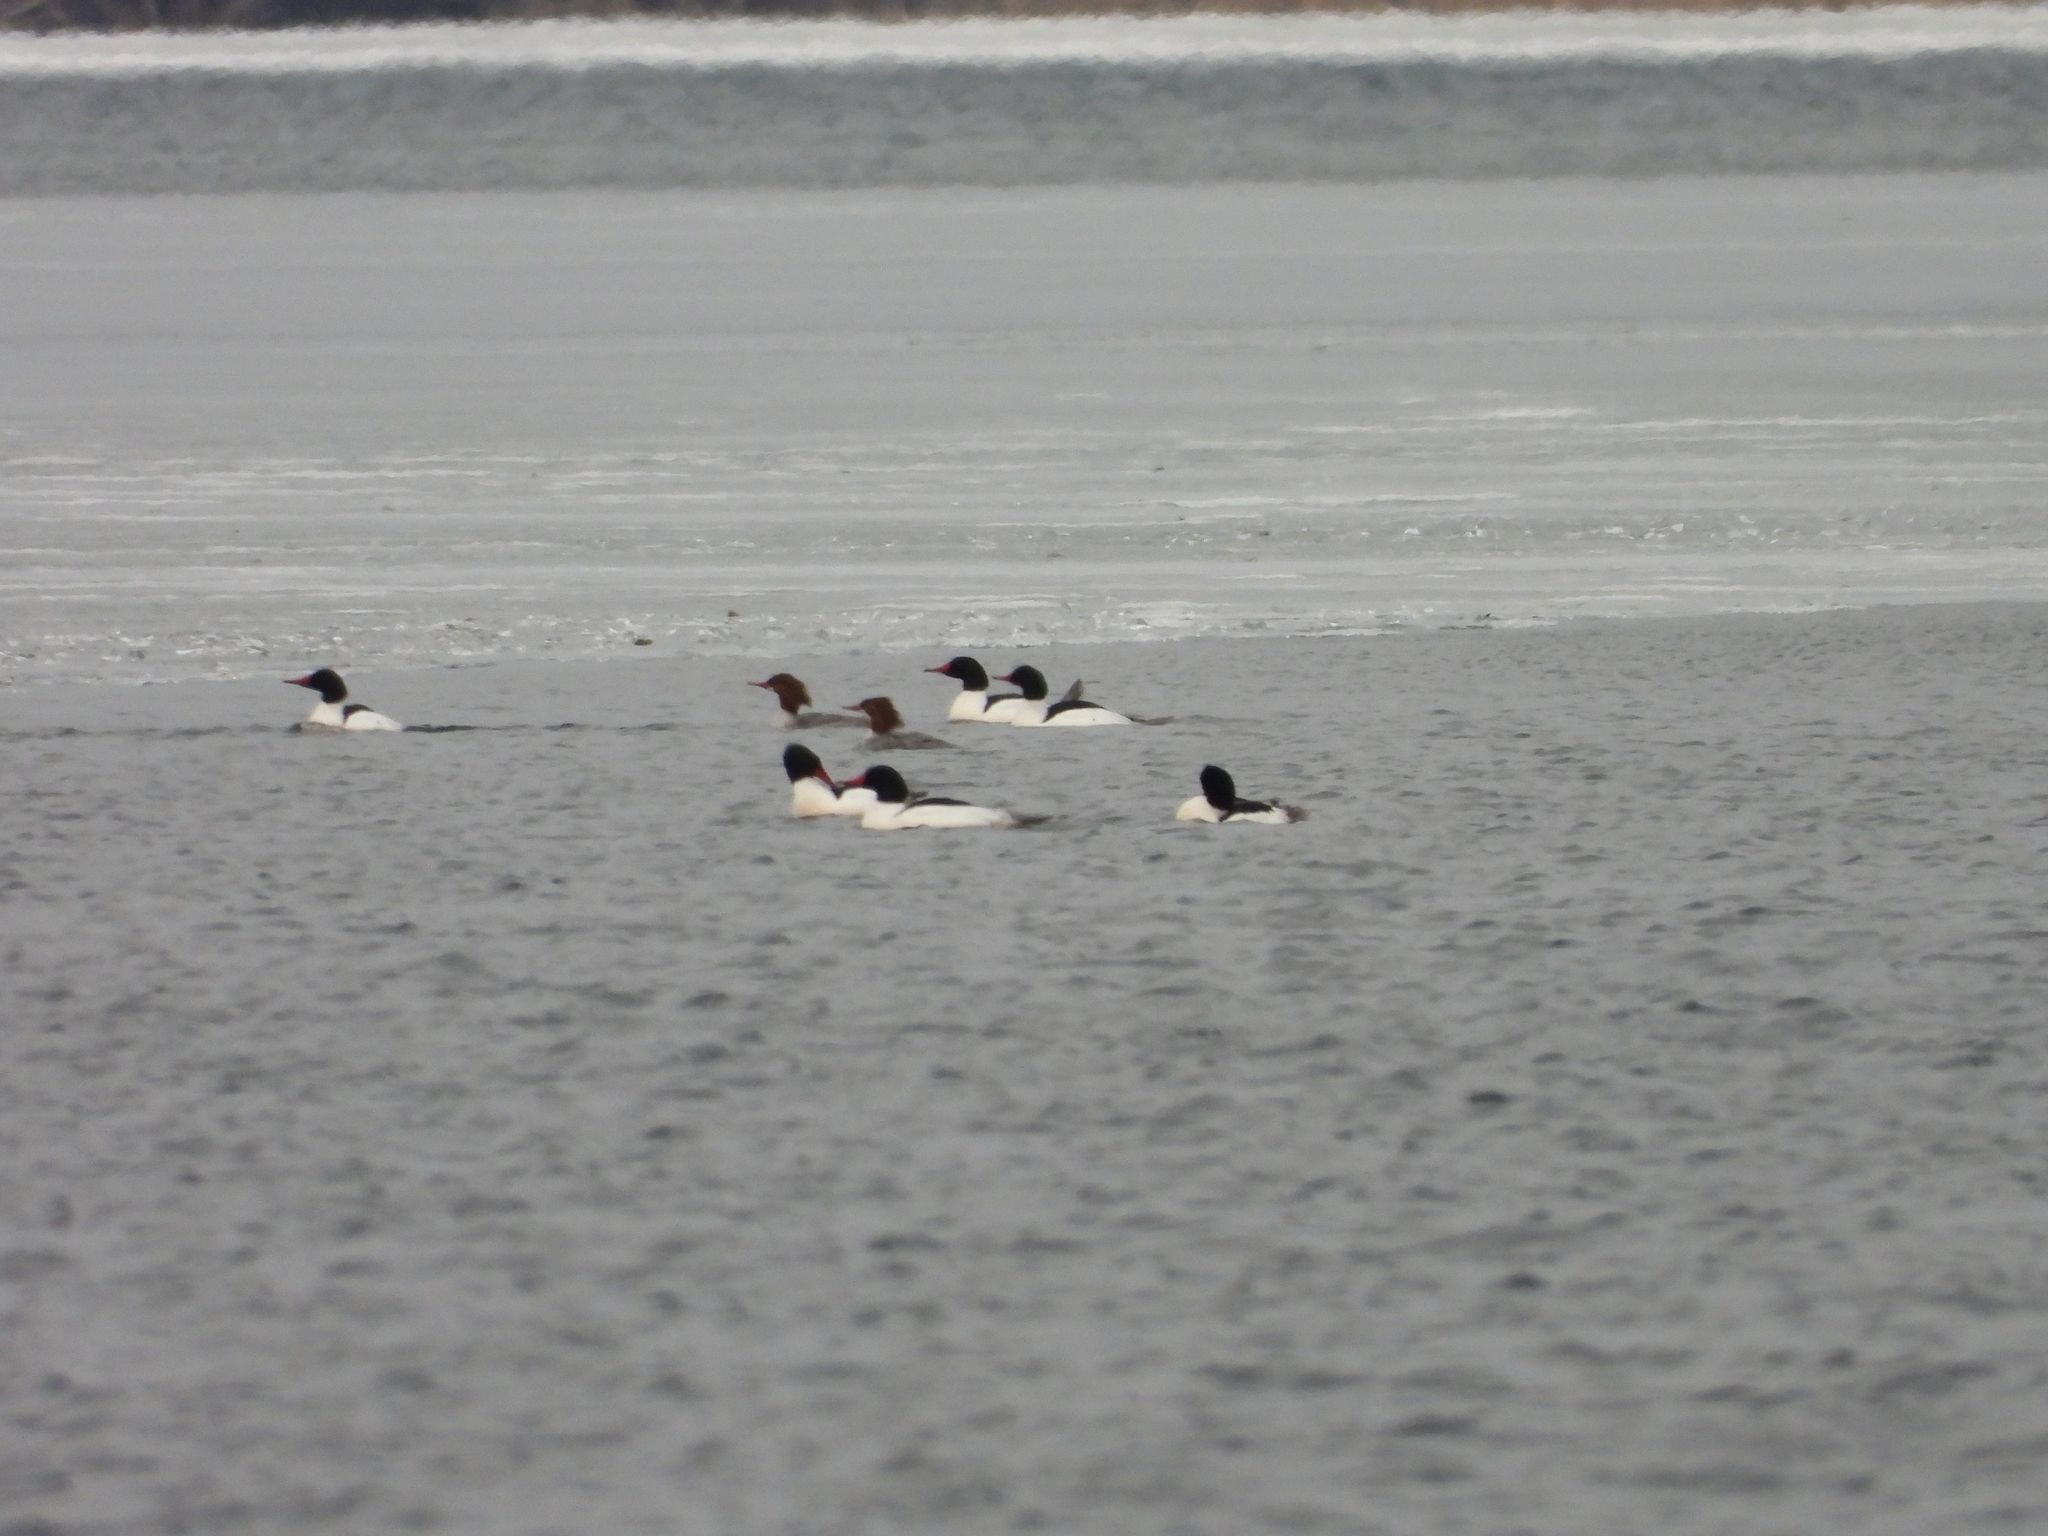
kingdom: Animalia
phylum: Chordata
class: Aves
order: Anseriformes
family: Anatidae
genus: Mergus
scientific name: Mergus merganser
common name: Common merganser
